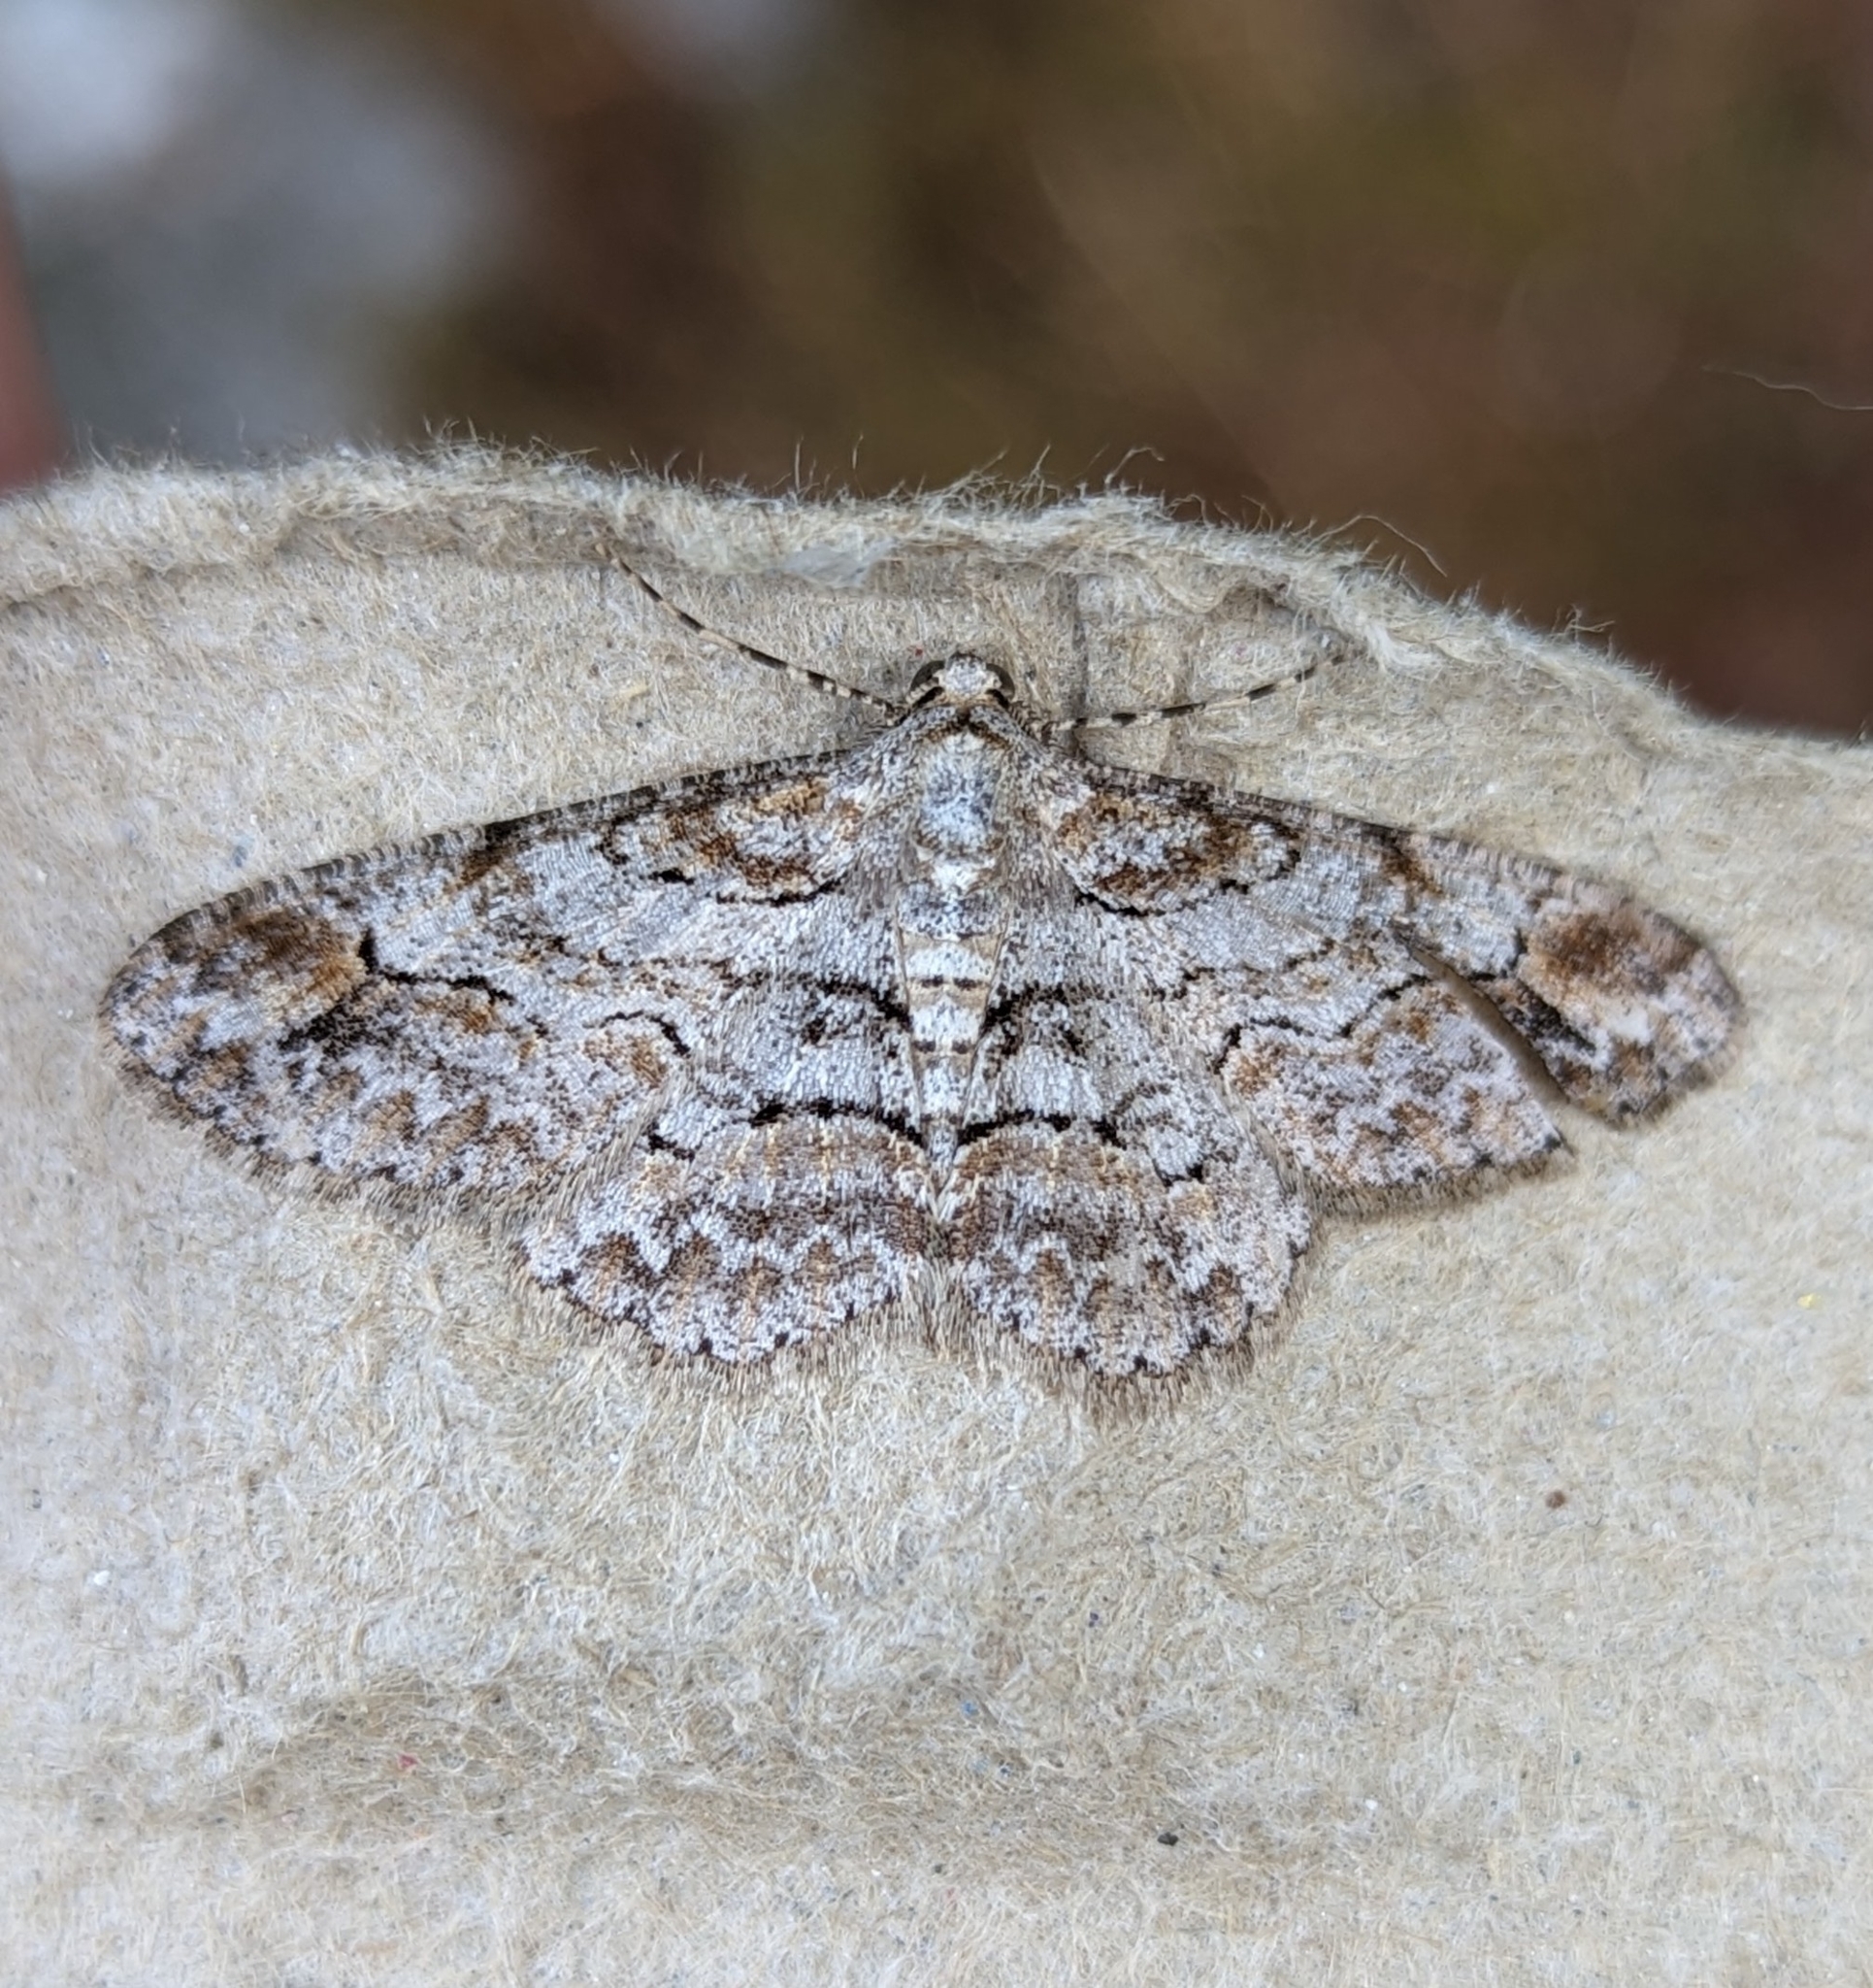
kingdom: Animalia
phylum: Arthropoda
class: Insecta
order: Lepidoptera
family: Geometridae
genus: Iridopsis
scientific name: Iridopsis emasculatum
